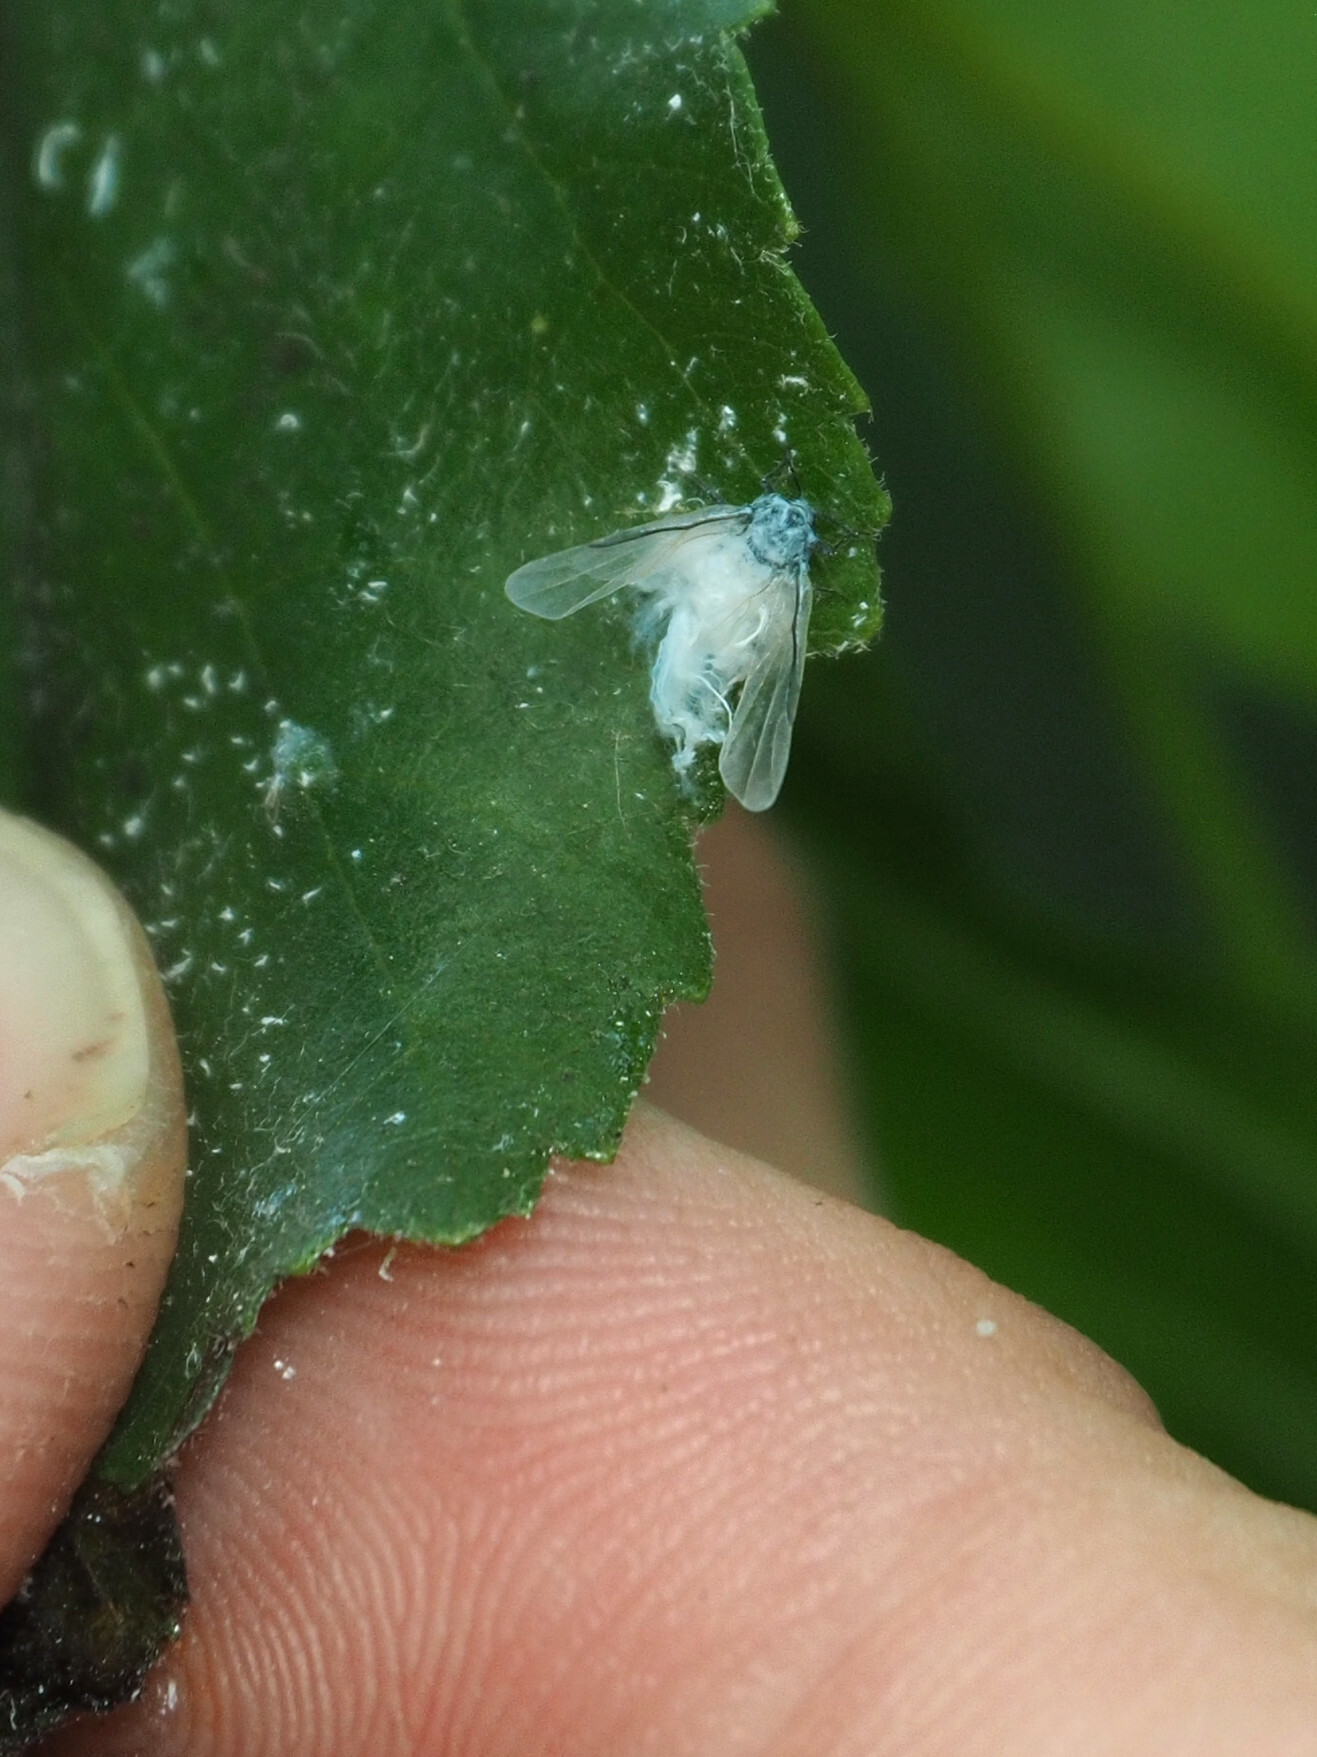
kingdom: Animalia
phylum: Arthropoda
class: Insecta
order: Hemiptera
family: Aphididae
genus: Prociphilus
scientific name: Prociphilus tessellatus
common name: Woolly alder aphid
